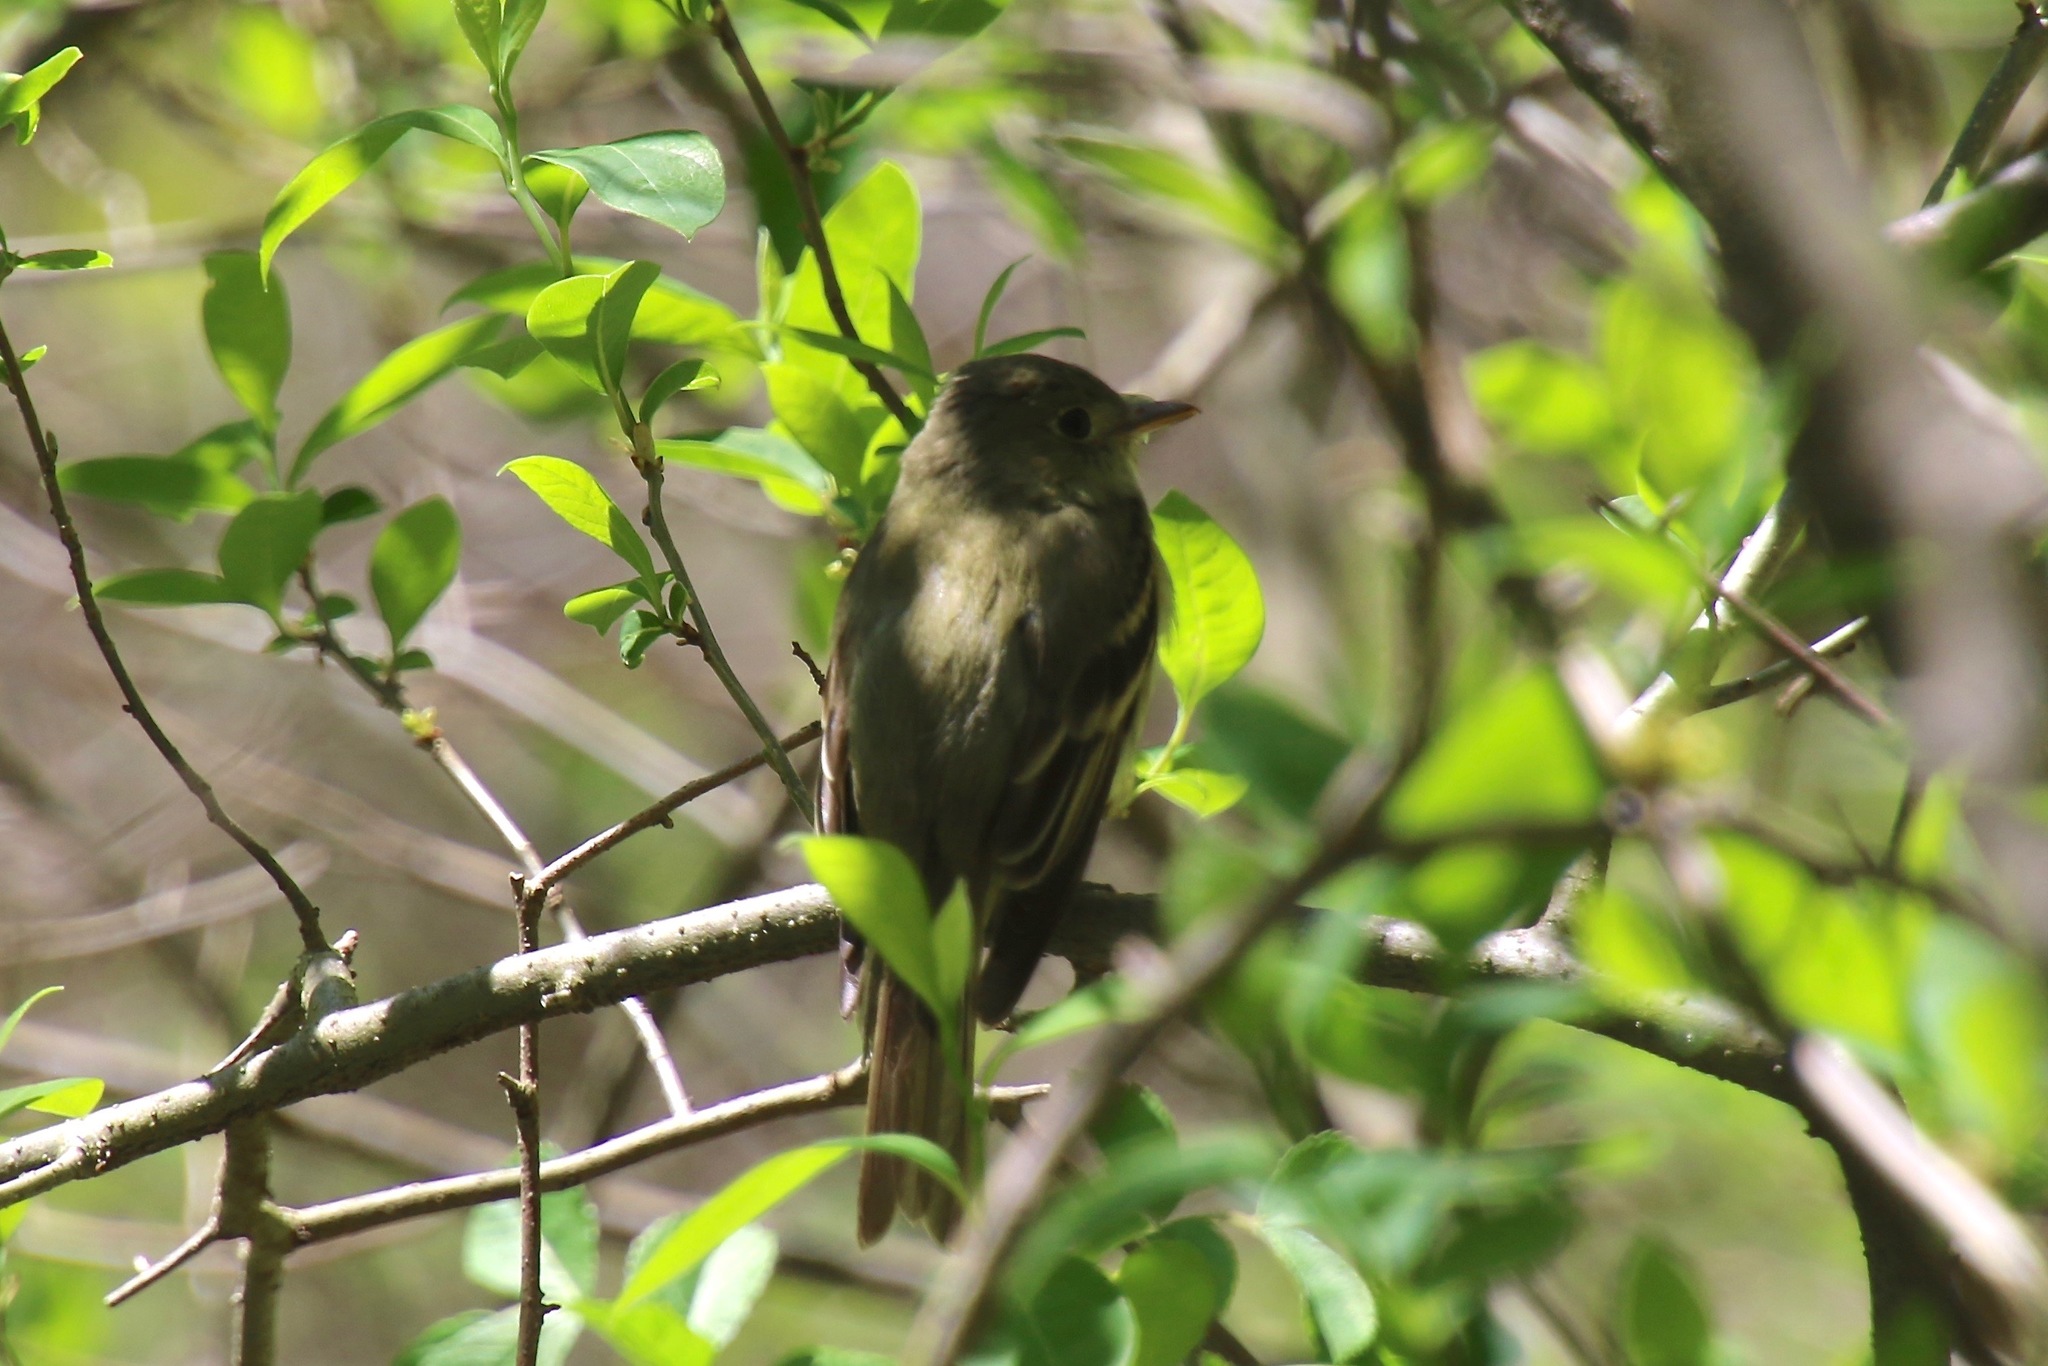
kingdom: Animalia
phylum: Chordata
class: Aves
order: Passeriformes
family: Tyrannidae
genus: Empidonax
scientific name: Empidonax virescens
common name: Acadian flycatcher
